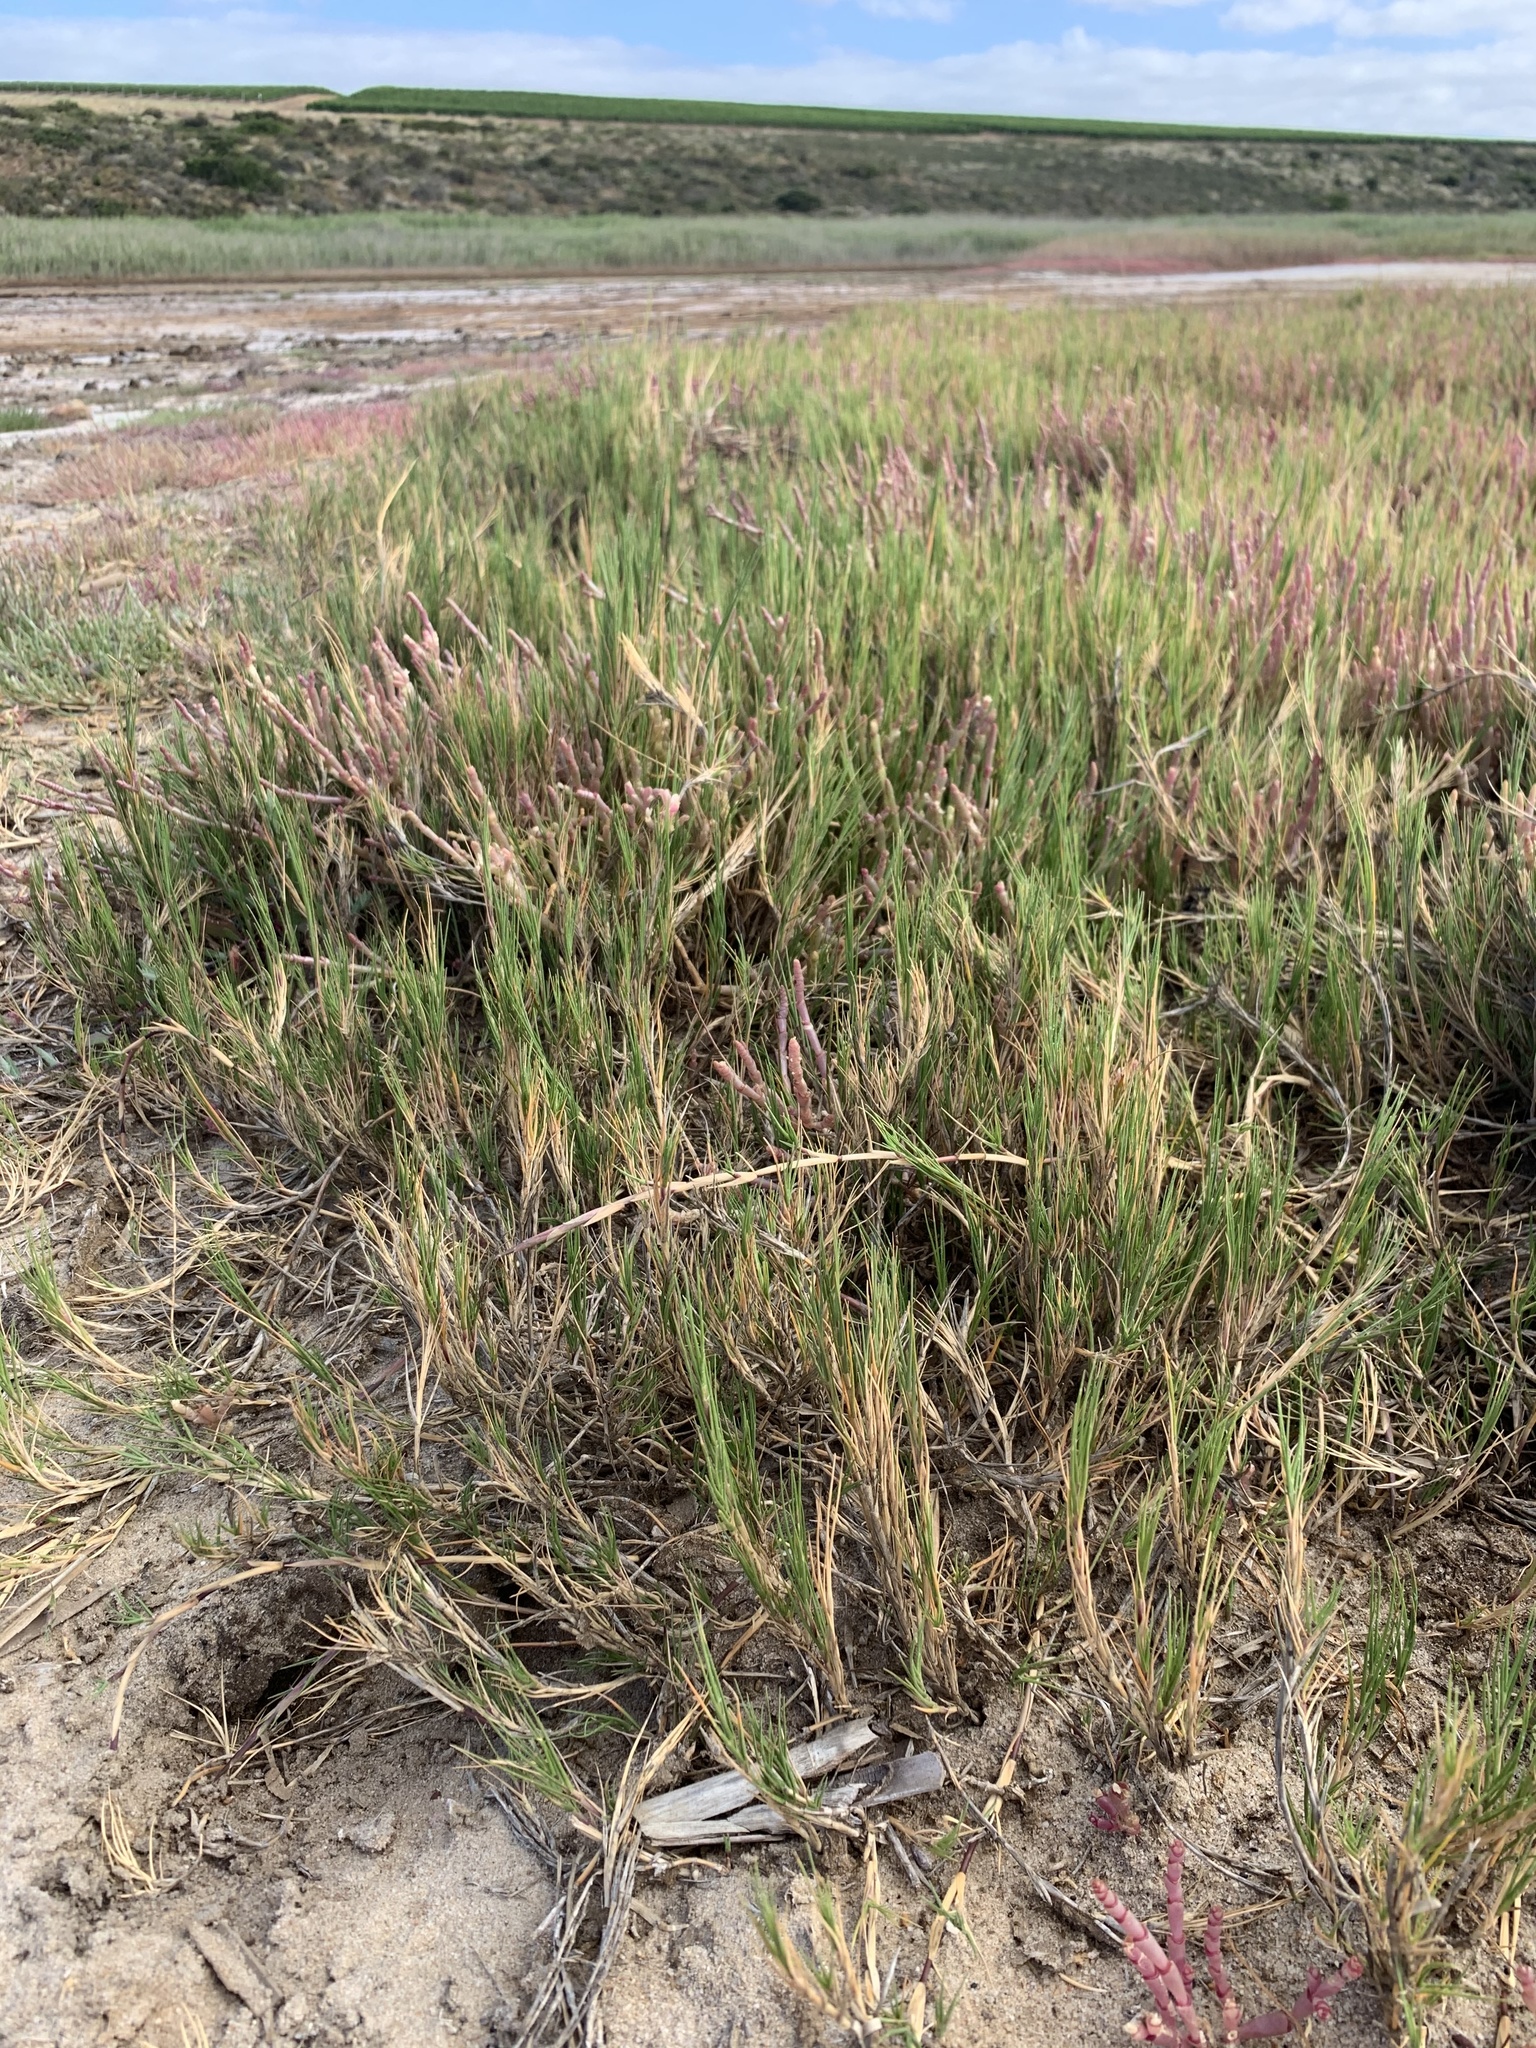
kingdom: Plantae
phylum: Tracheophyta
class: Liliopsida
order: Poales
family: Poaceae
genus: Sporobolus
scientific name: Sporobolus virginicus
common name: Beach dropseed
